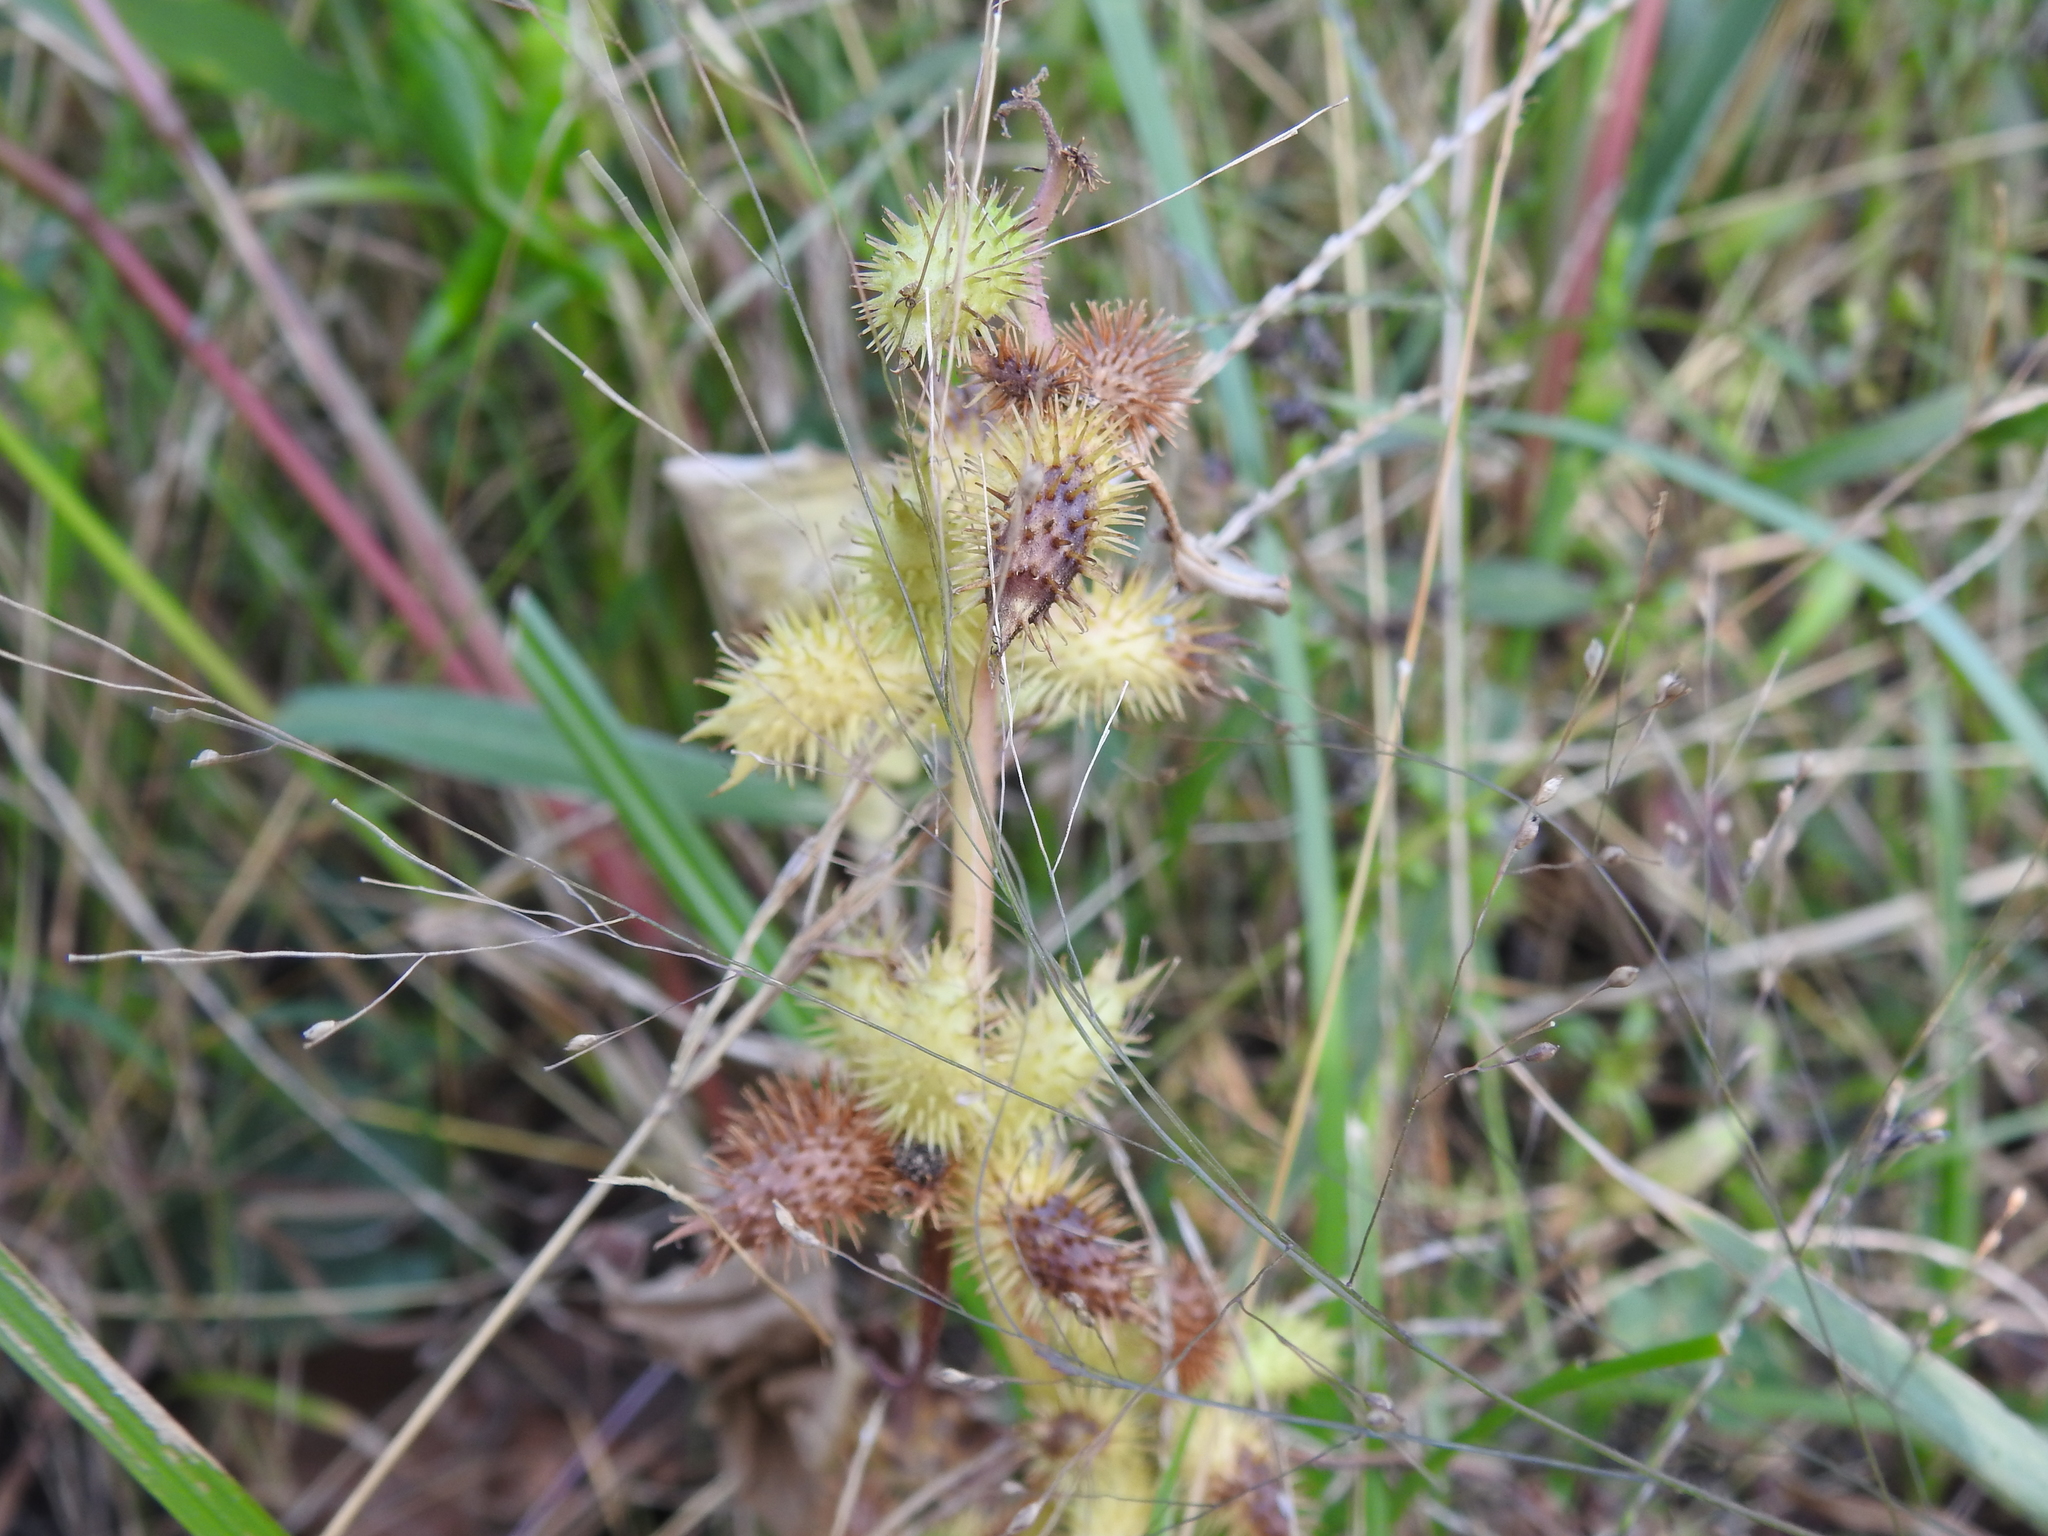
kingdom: Plantae
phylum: Tracheophyta
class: Magnoliopsida
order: Asterales
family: Asteraceae
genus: Xanthium
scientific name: Xanthium strumarium
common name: Rough cocklebur
